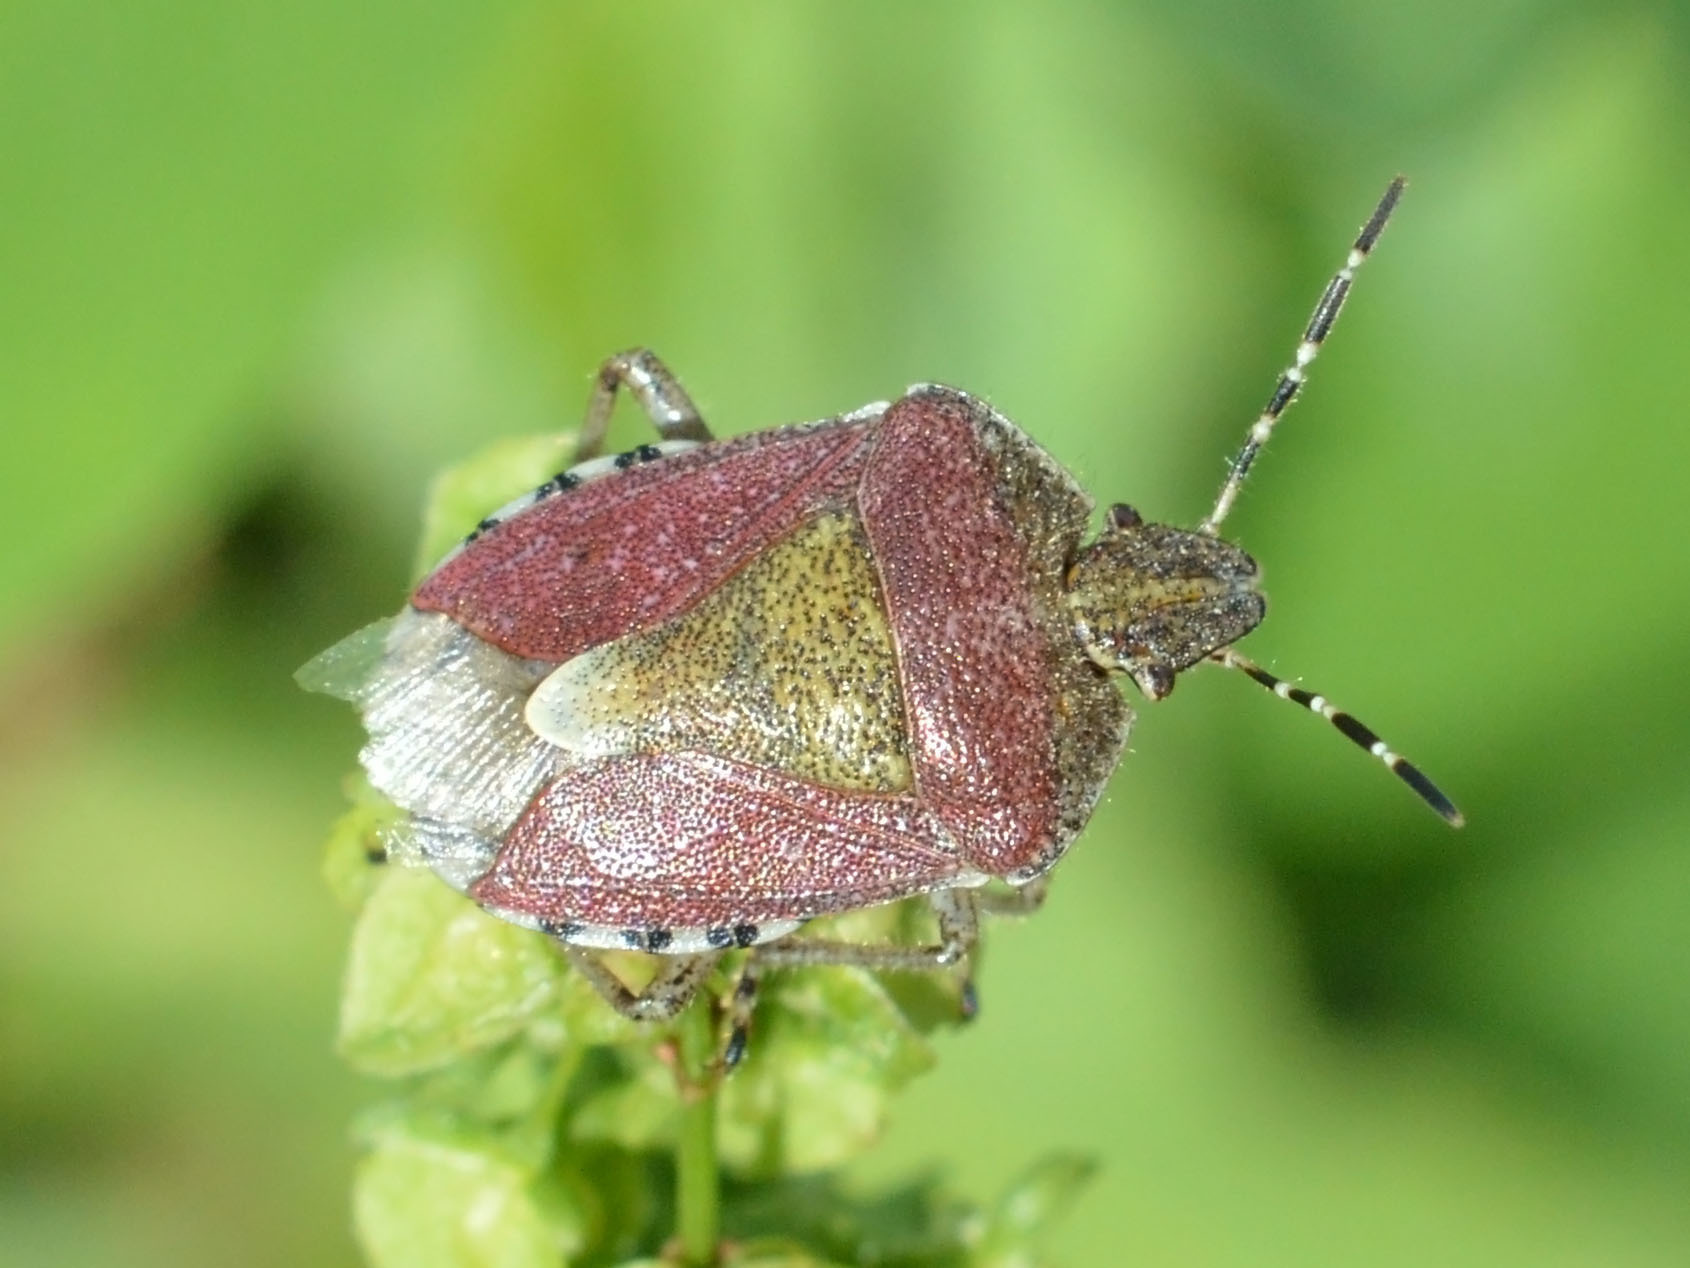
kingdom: Animalia
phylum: Arthropoda
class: Insecta
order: Hemiptera
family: Pentatomidae
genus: Dolycoris
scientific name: Dolycoris baccarum
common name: Sloe bug
